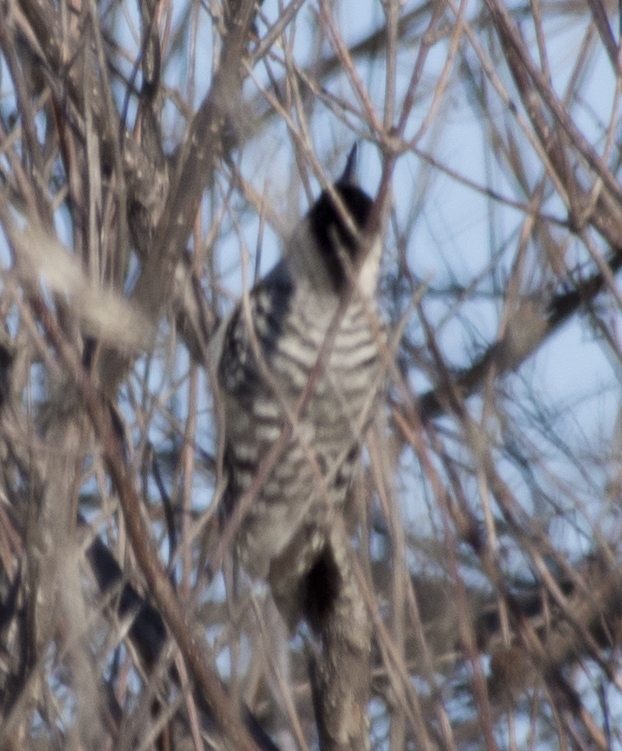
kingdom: Animalia
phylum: Chordata
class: Aves
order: Piciformes
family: Picidae
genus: Dryobates
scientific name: Dryobates scalaris
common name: Ladder-backed woodpecker
